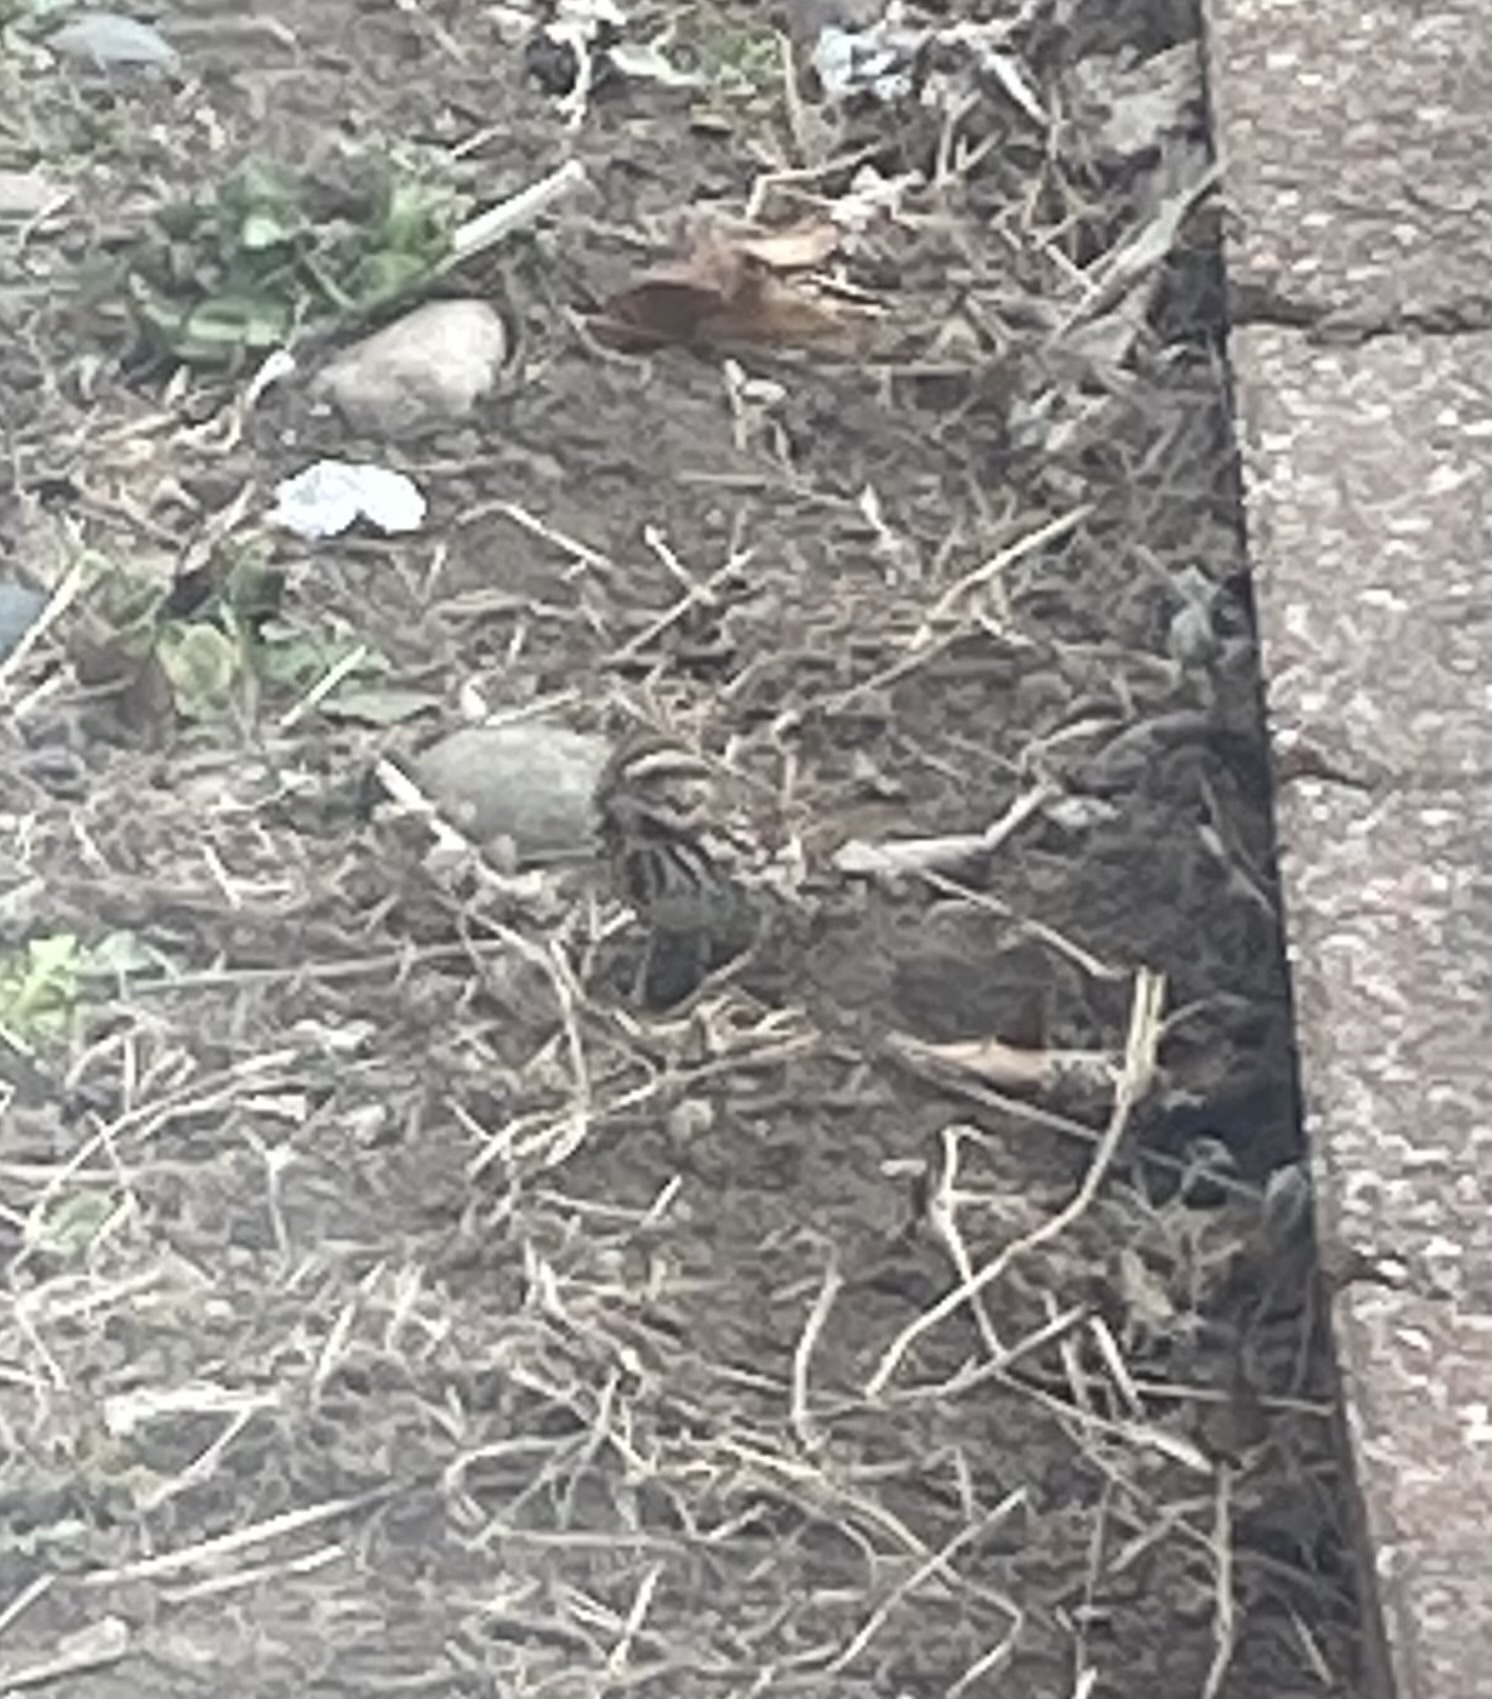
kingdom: Animalia
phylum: Chordata
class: Aves
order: Passeriformes
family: Passerellidae
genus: Melospiza
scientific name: Melospiza melodia
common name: Song sparrow
